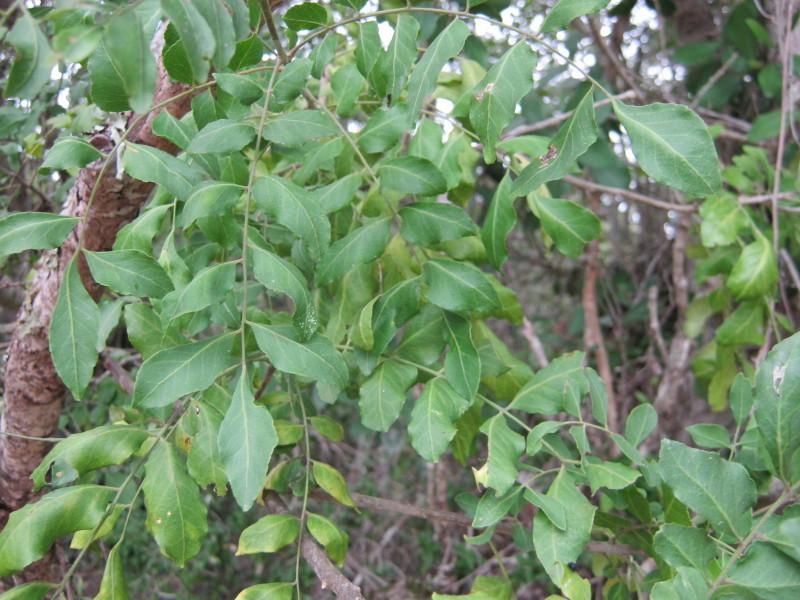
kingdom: Plantae
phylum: Tracheophyta
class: Magnoliopsida
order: Sapindales
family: Rutaceae
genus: Clausena
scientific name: Clausena anisata
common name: Horsewood
